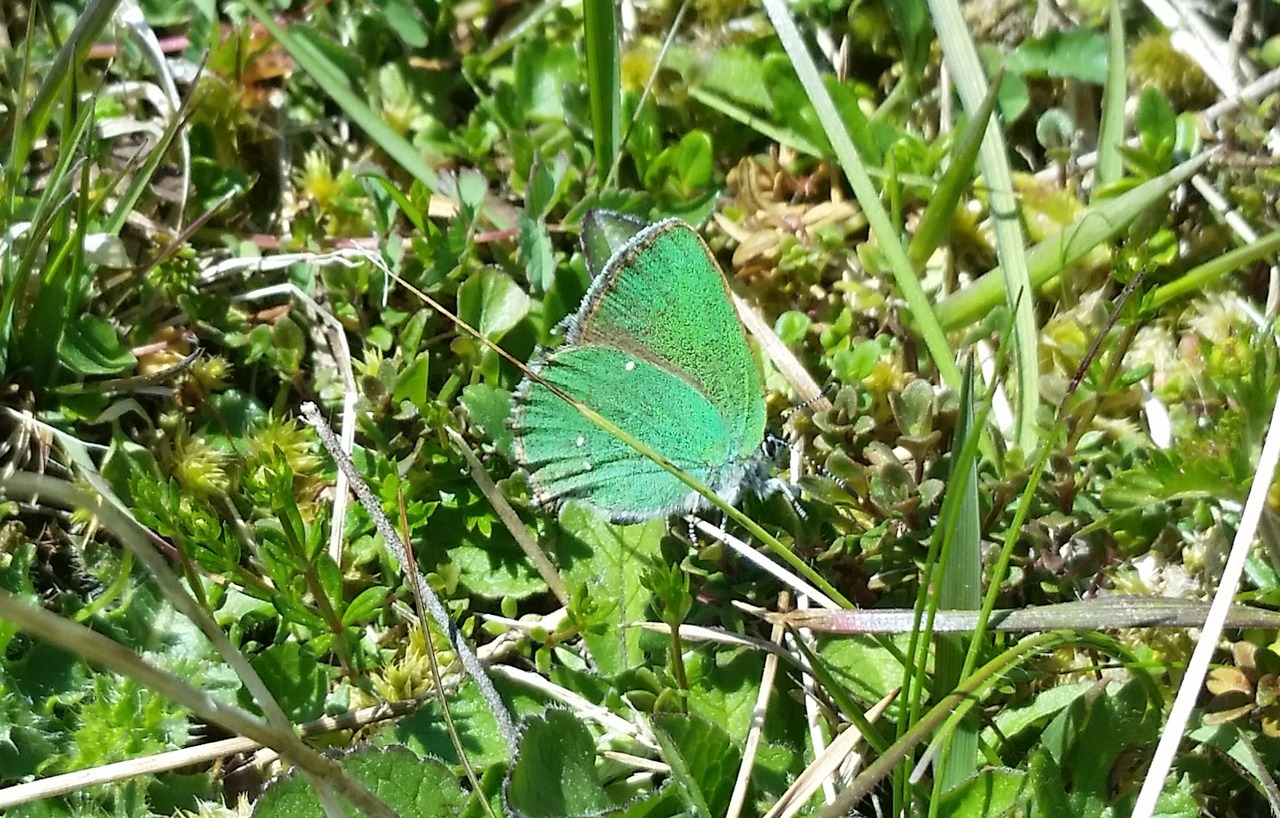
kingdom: Animalia
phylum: Arthropoda
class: Insecta
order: Lepidoptera
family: Lycaenidae
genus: Callophrys
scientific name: Callophrys rubi
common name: Green hairstreak
